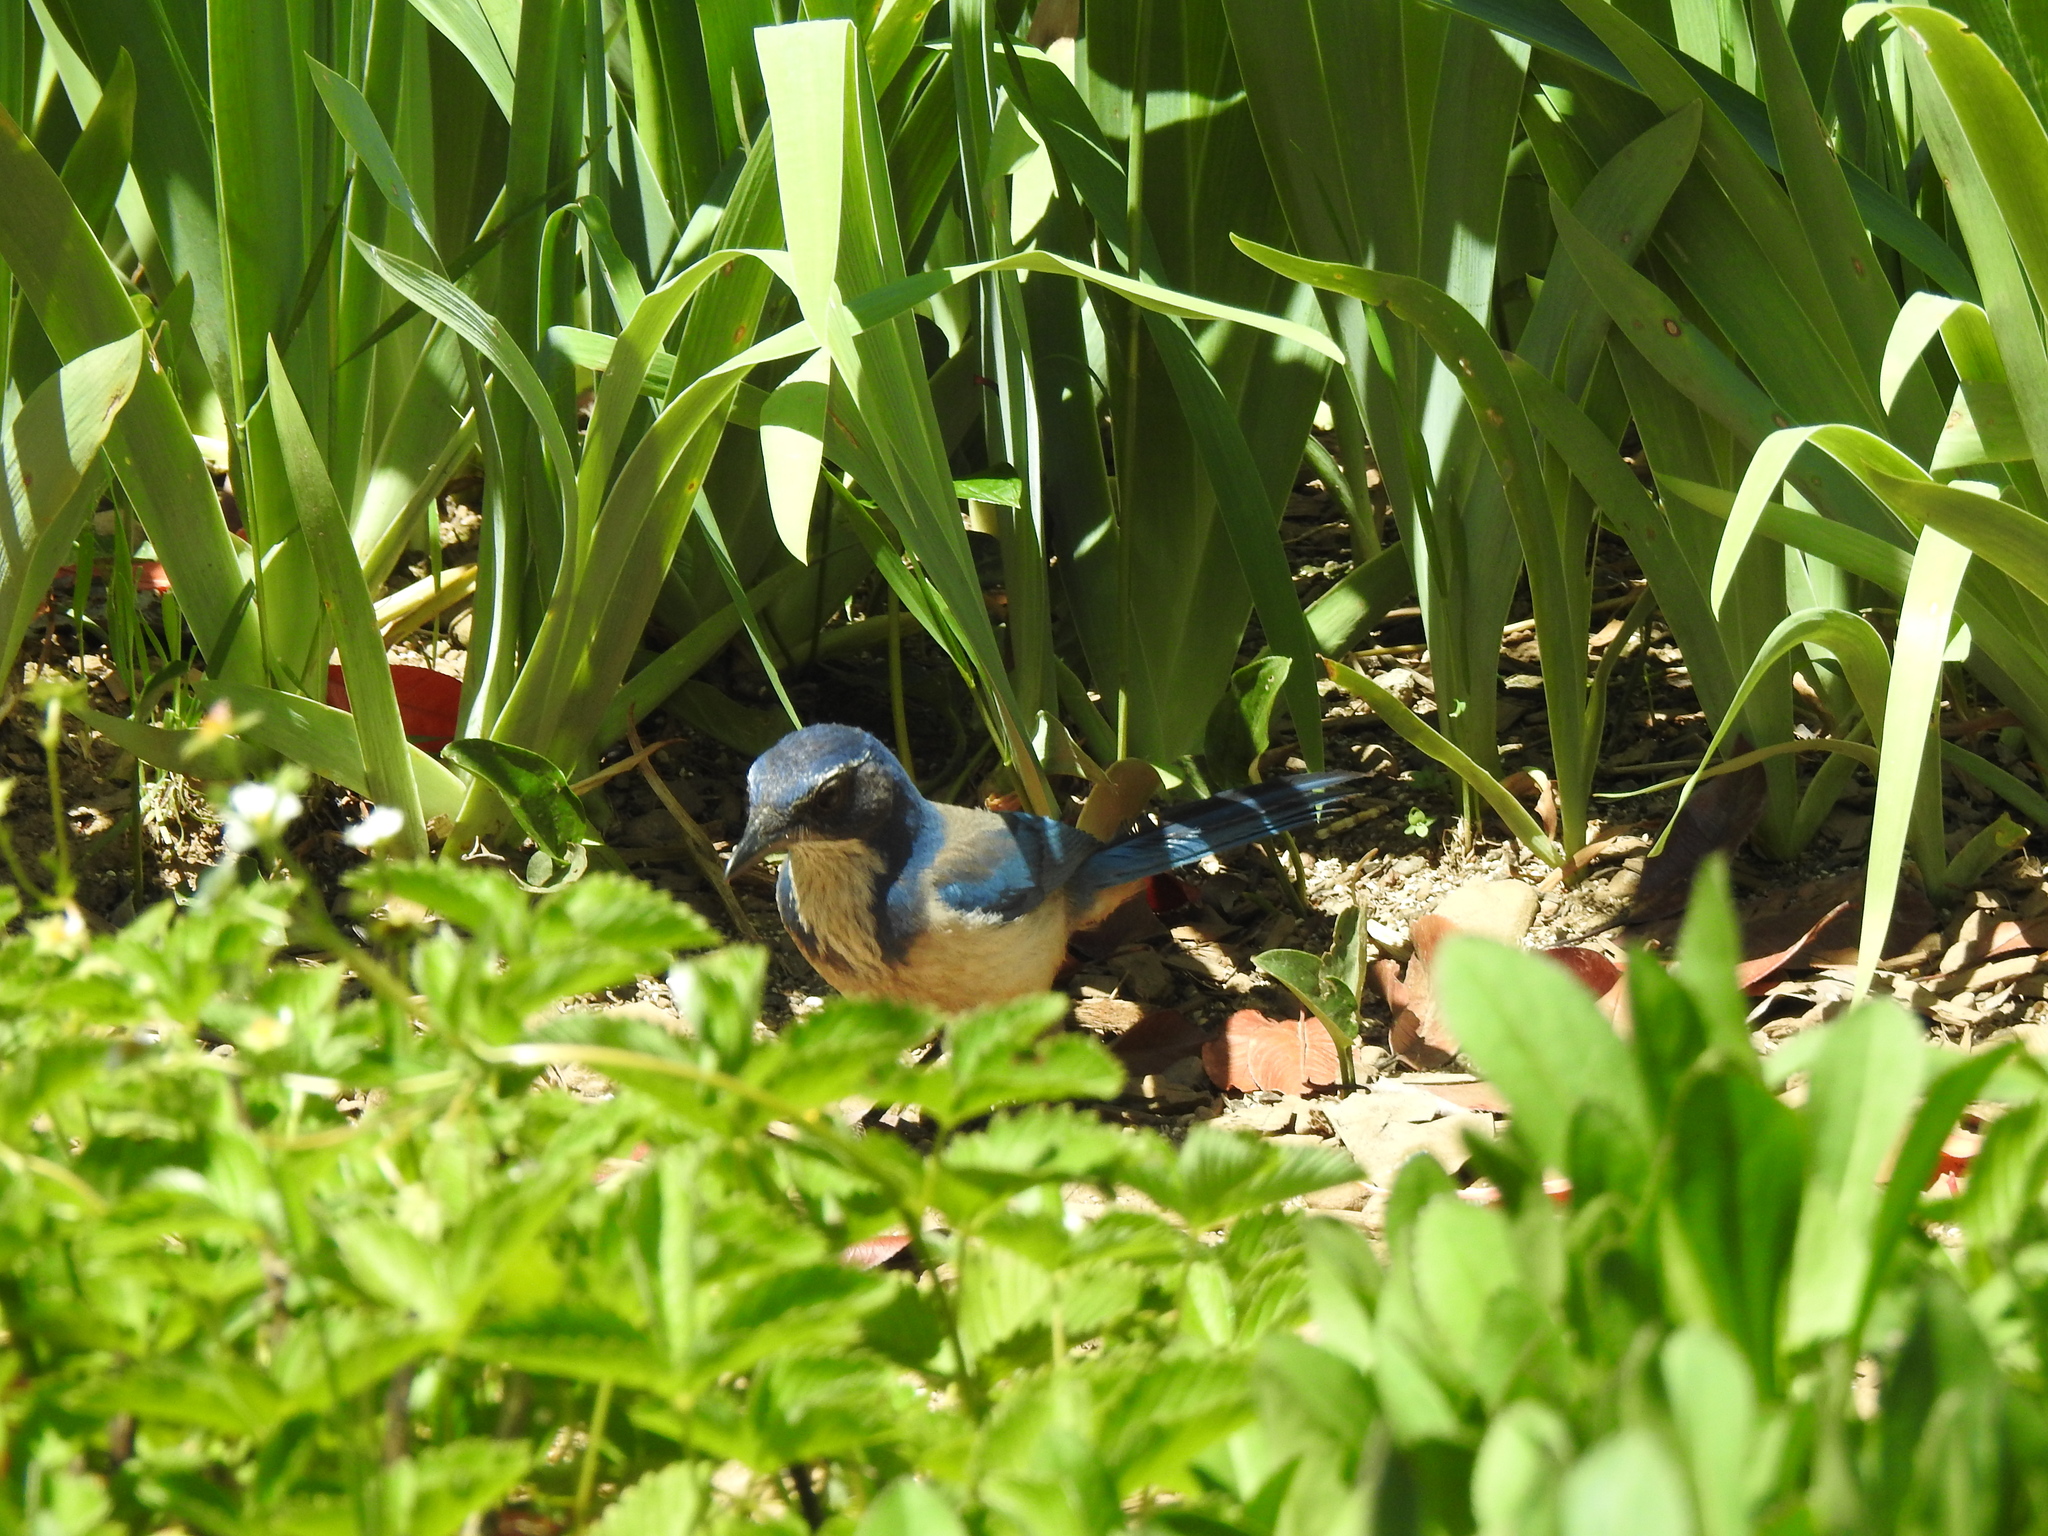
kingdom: Animalia
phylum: Chordata
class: Aves
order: Passeriformes
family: Corvidae
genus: Aphelocoma
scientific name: Aphelocoma californica
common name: California scrub-jay
